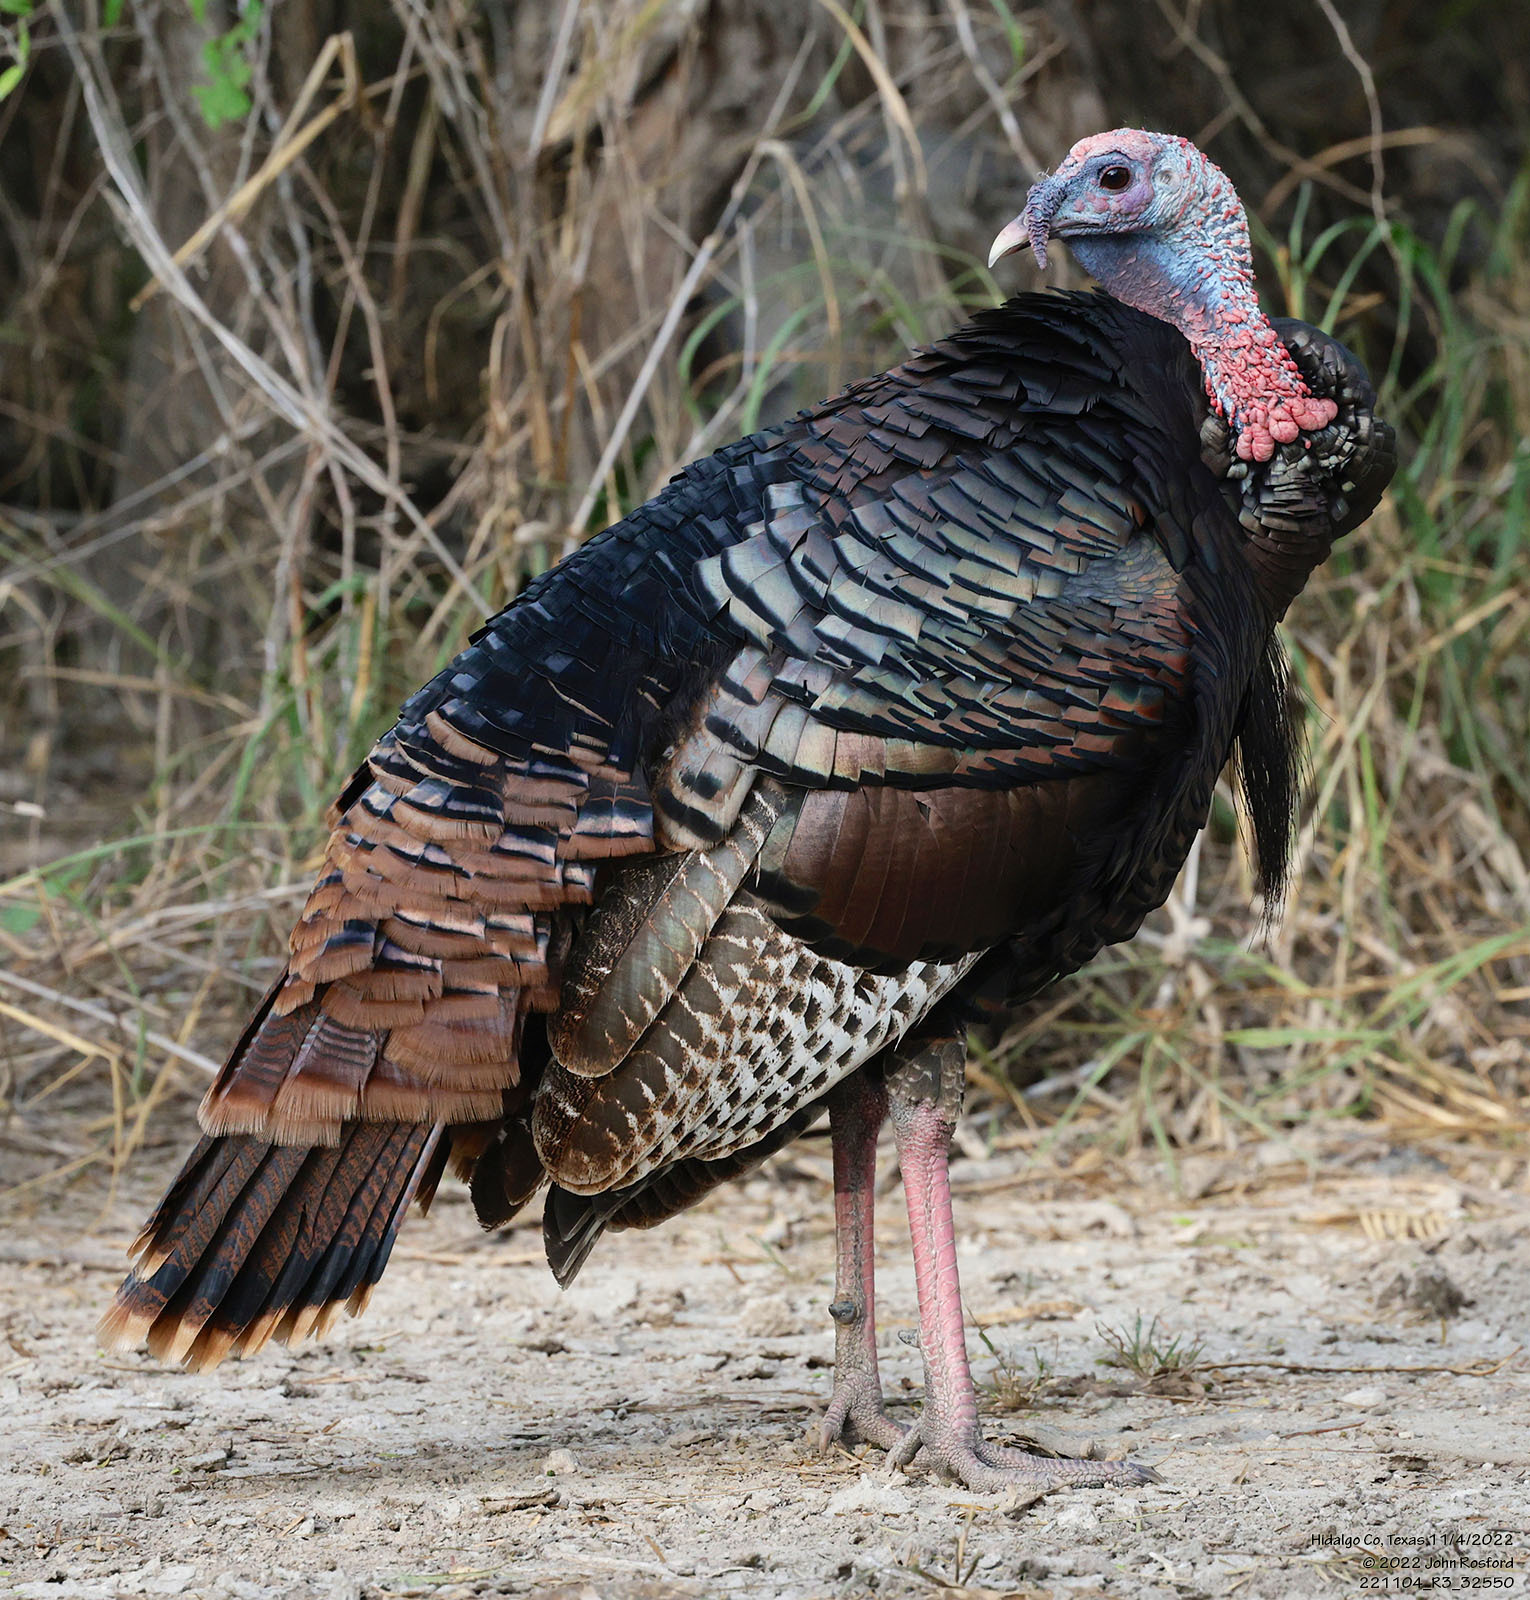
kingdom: Animalia
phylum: Chordata
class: Aves
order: Galliformes
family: Phasianidae
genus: Meleagris
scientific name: Meleagris gallopavo
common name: Wild turkey
